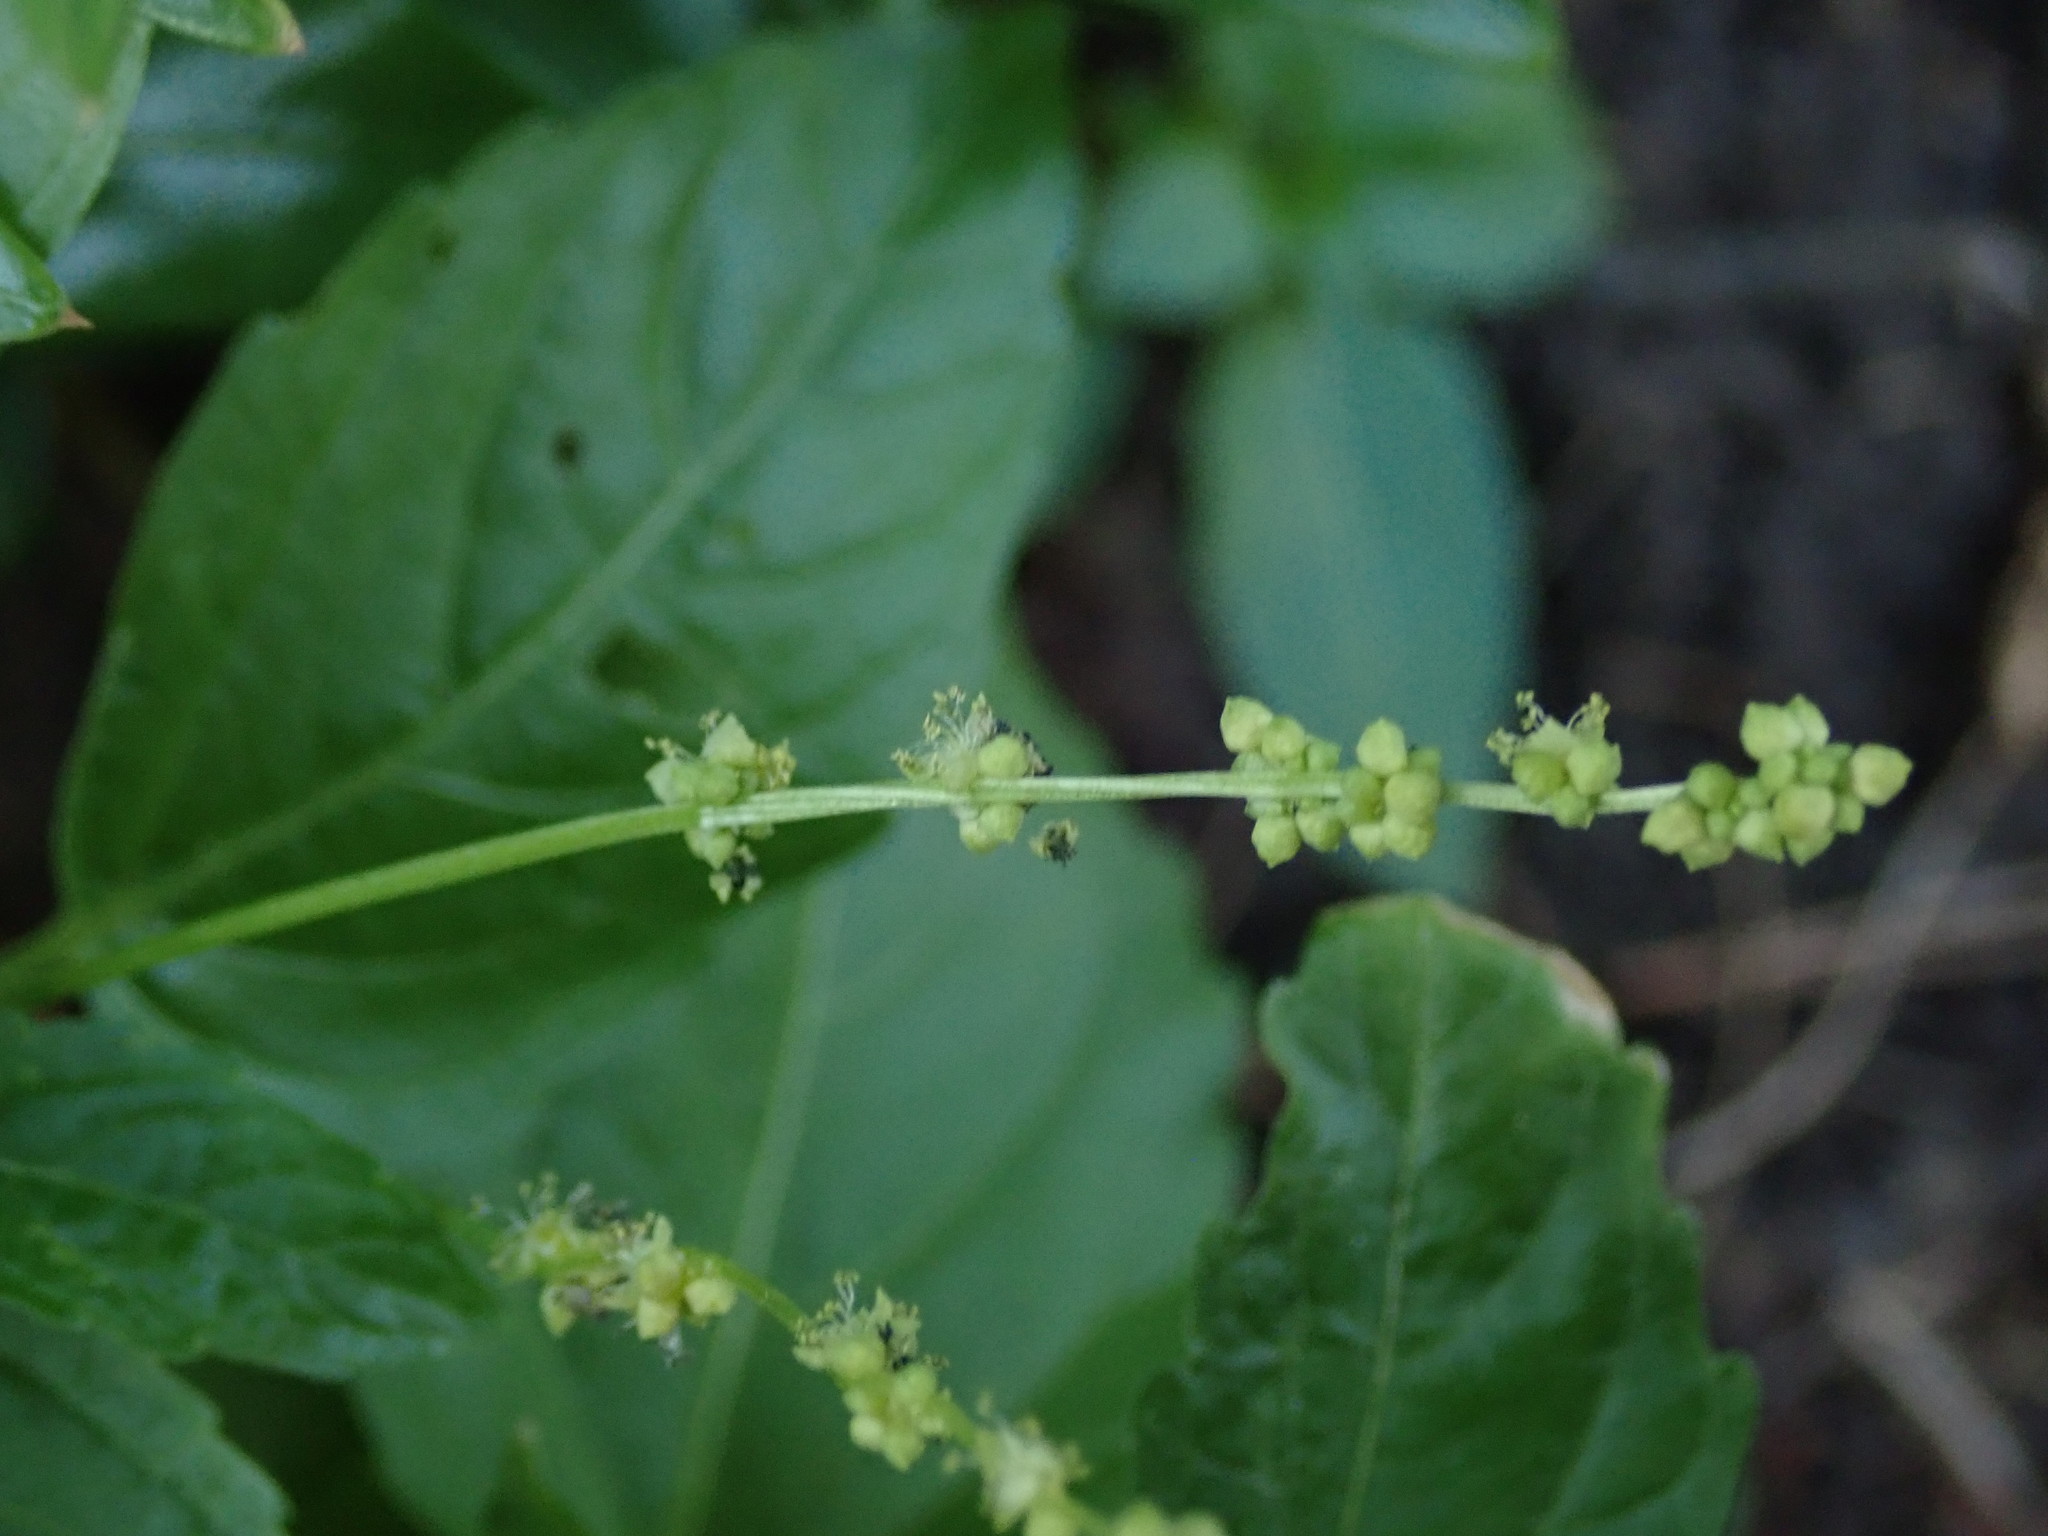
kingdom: Plantae
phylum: Tracheophyta
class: Magnoliopsida
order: Malpighiales
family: Euphorbiaceae
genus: Mercurialis
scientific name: Mercurialis annua
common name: Annual mercury
